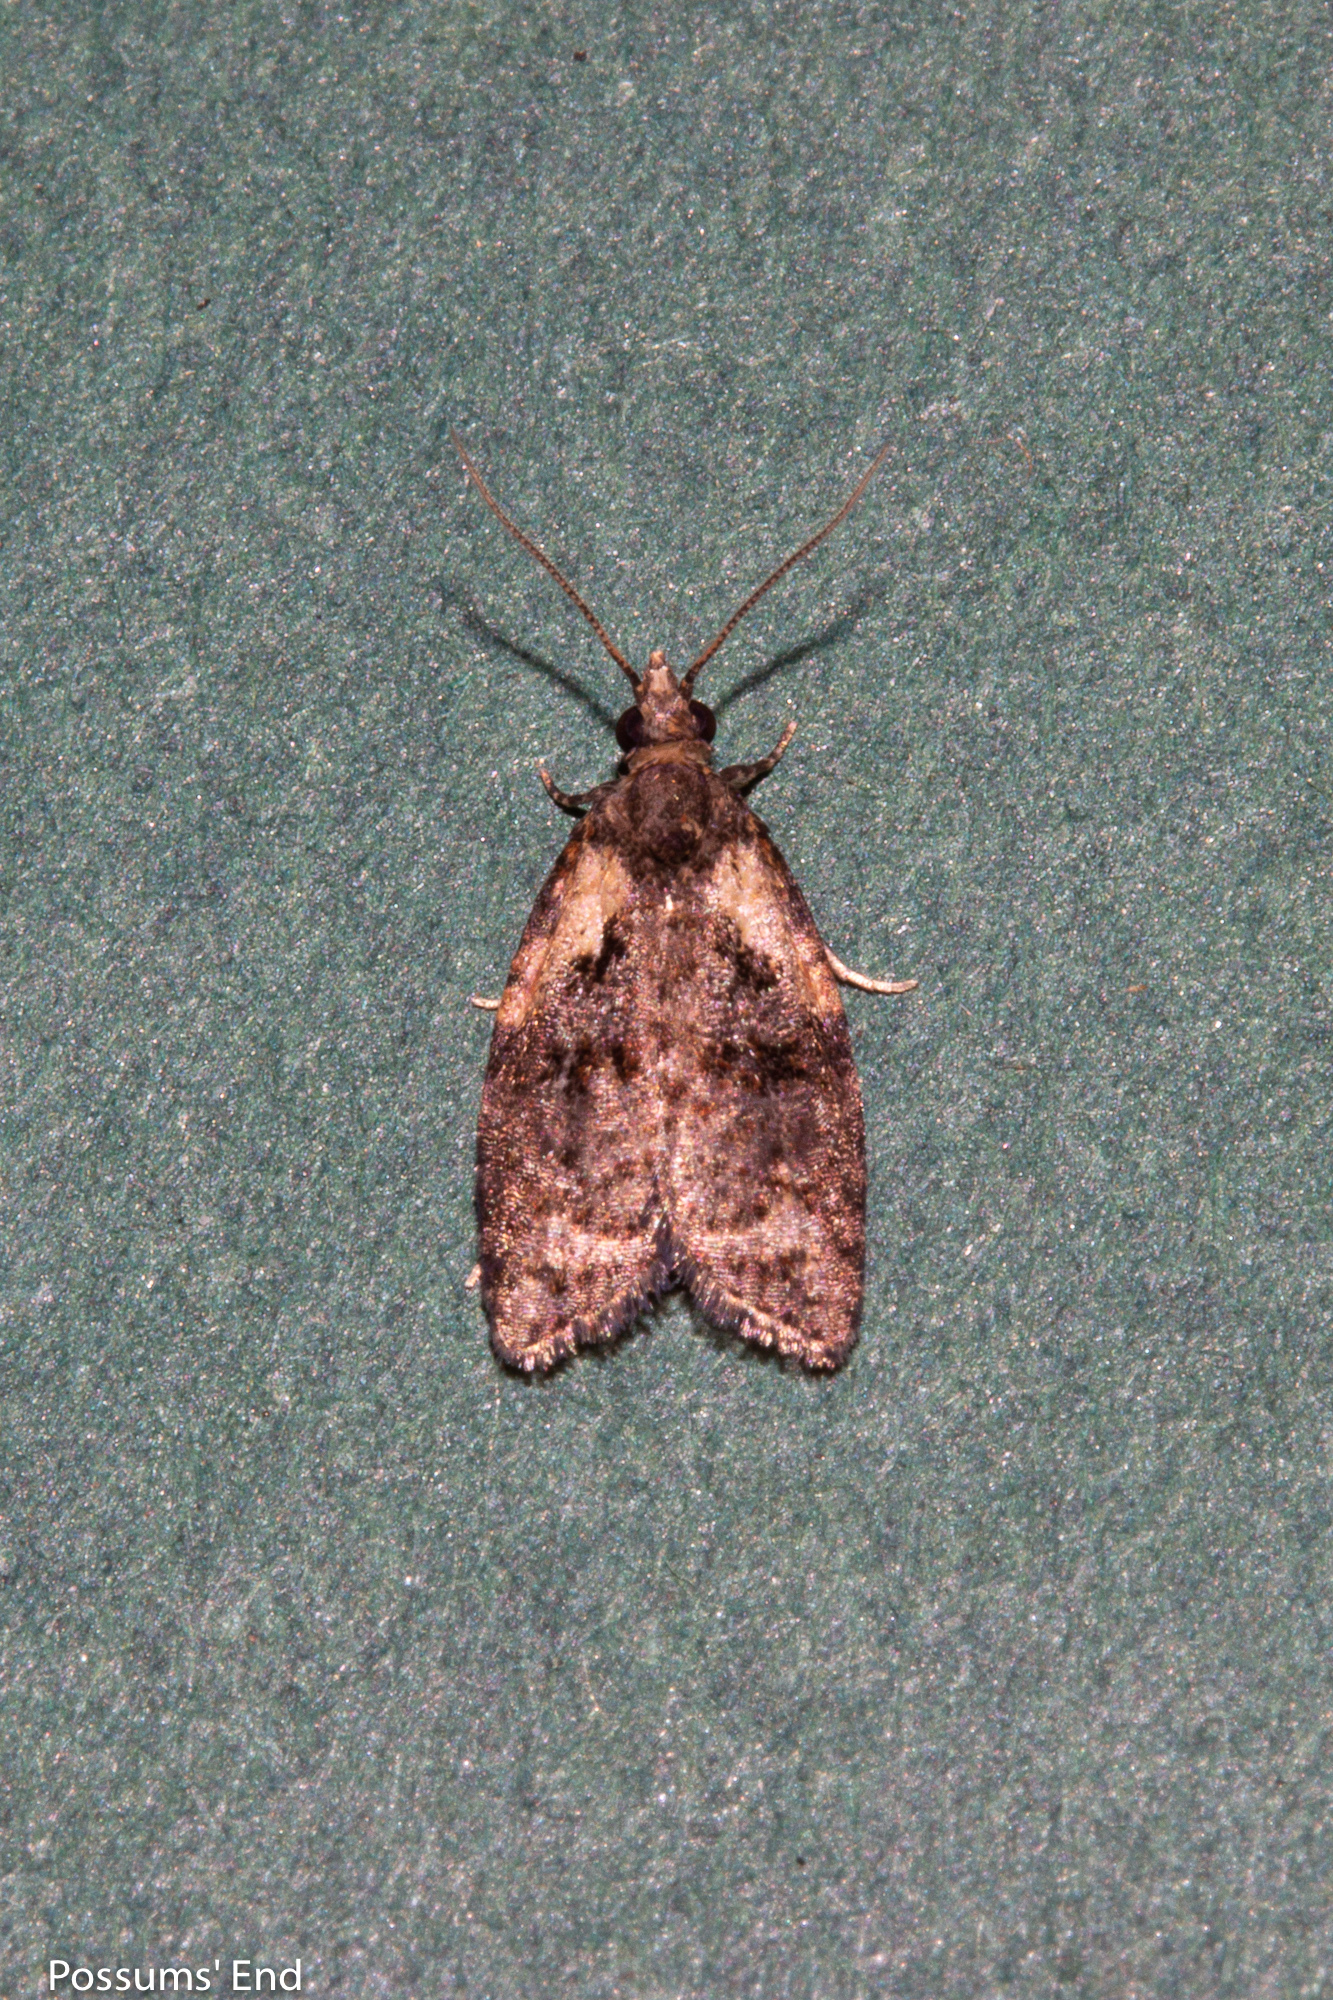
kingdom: Animalia
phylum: Arthropoda
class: Insecta
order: Lepidoptera
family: Tortricidae
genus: Capua
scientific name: Capua intractana
